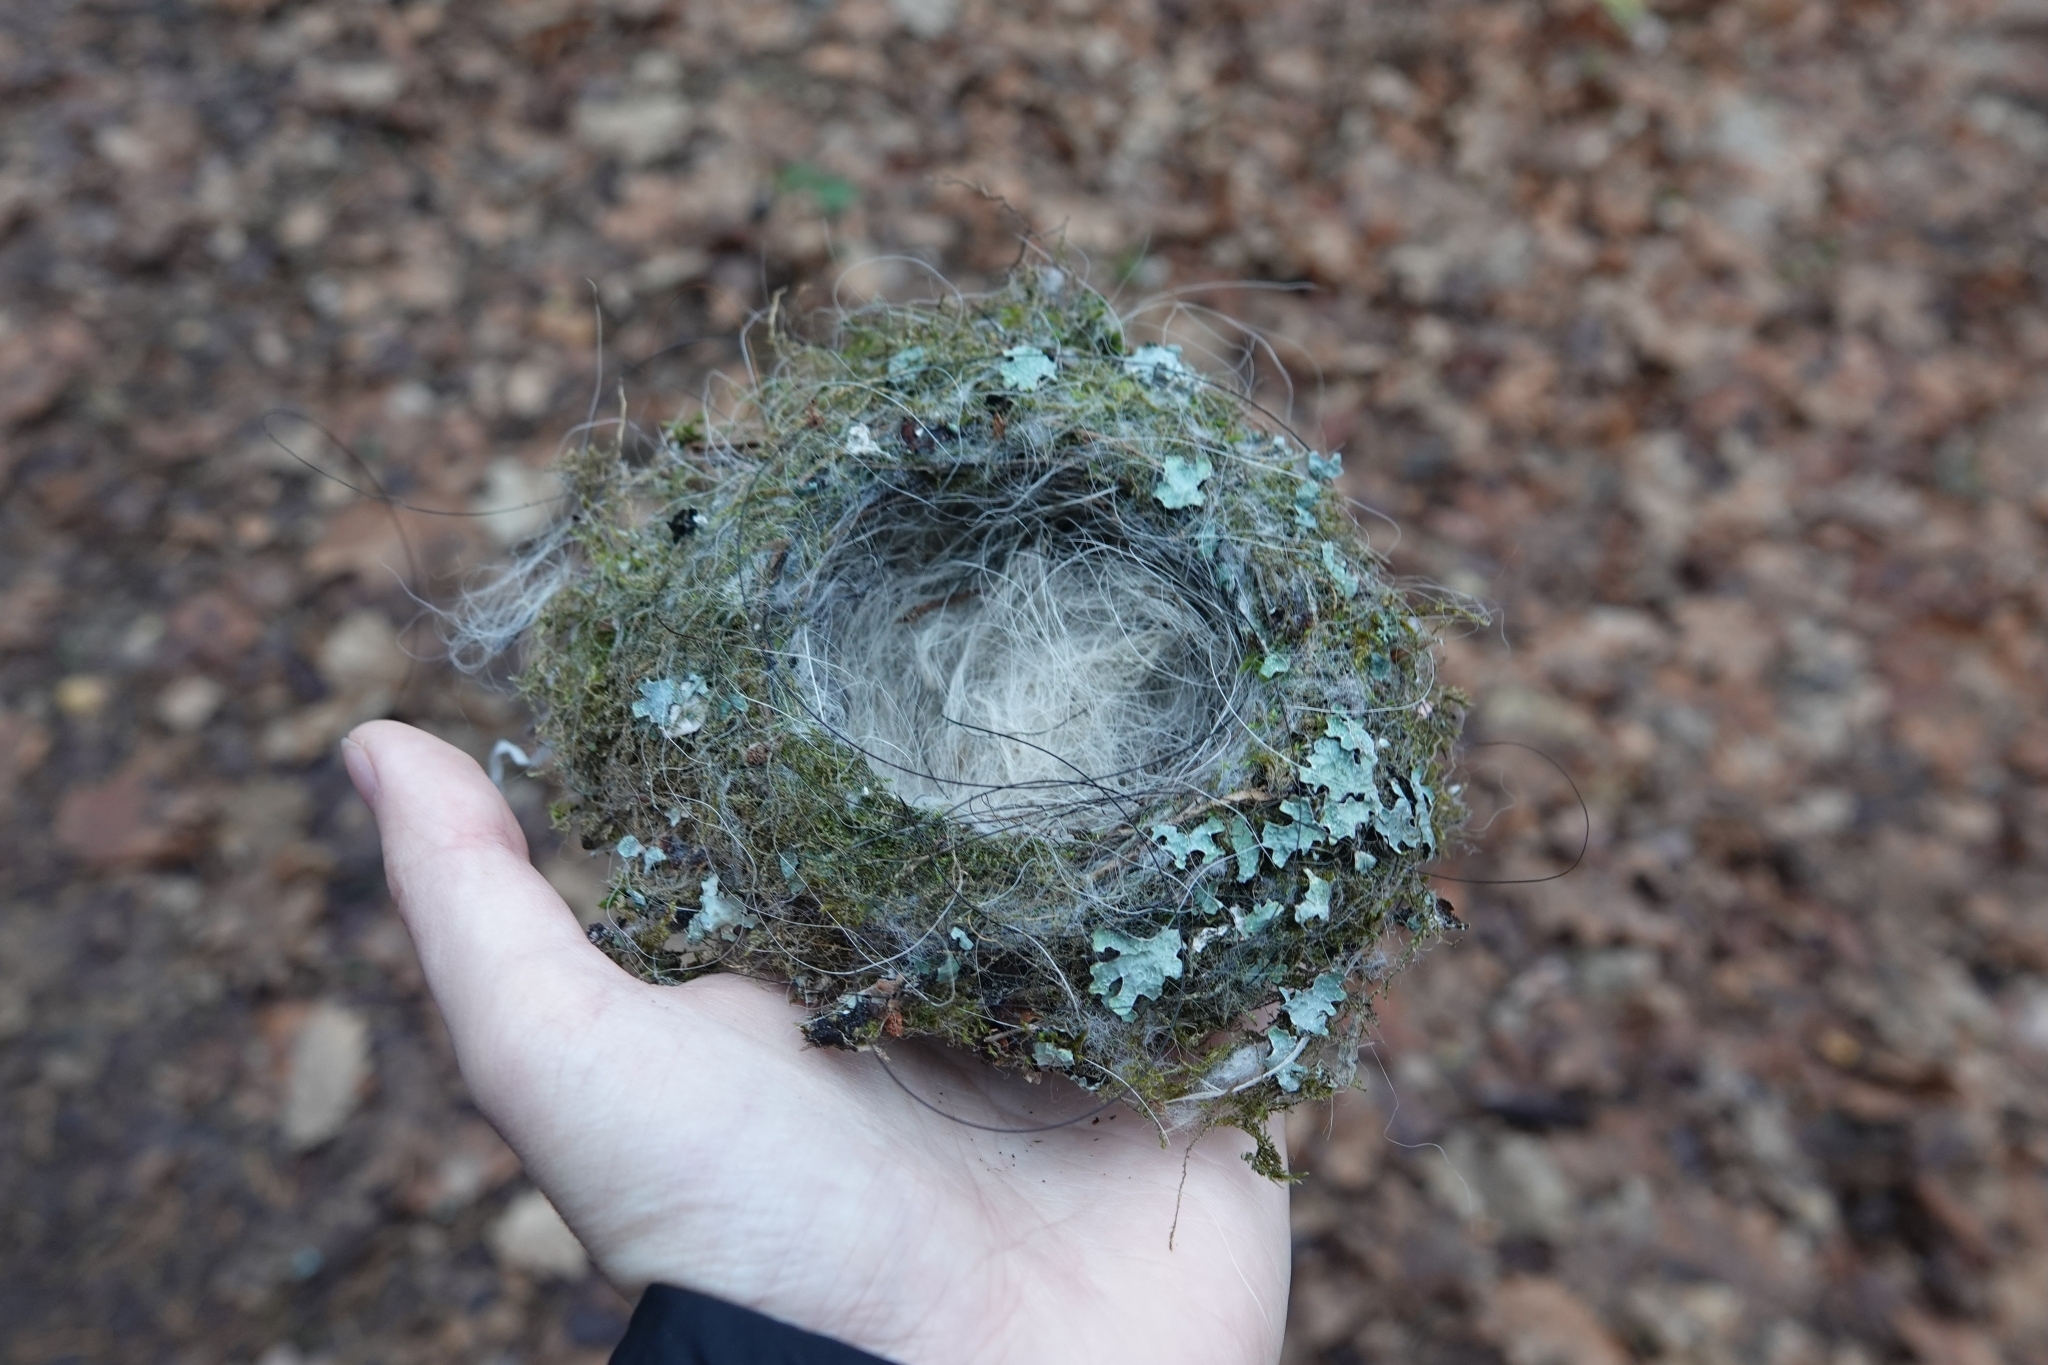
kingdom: Animalia
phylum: Chordata
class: Aves
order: Passeriformes
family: Fringillidae
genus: Fringilla
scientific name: Fringilla coelebs
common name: Common chaffinch
